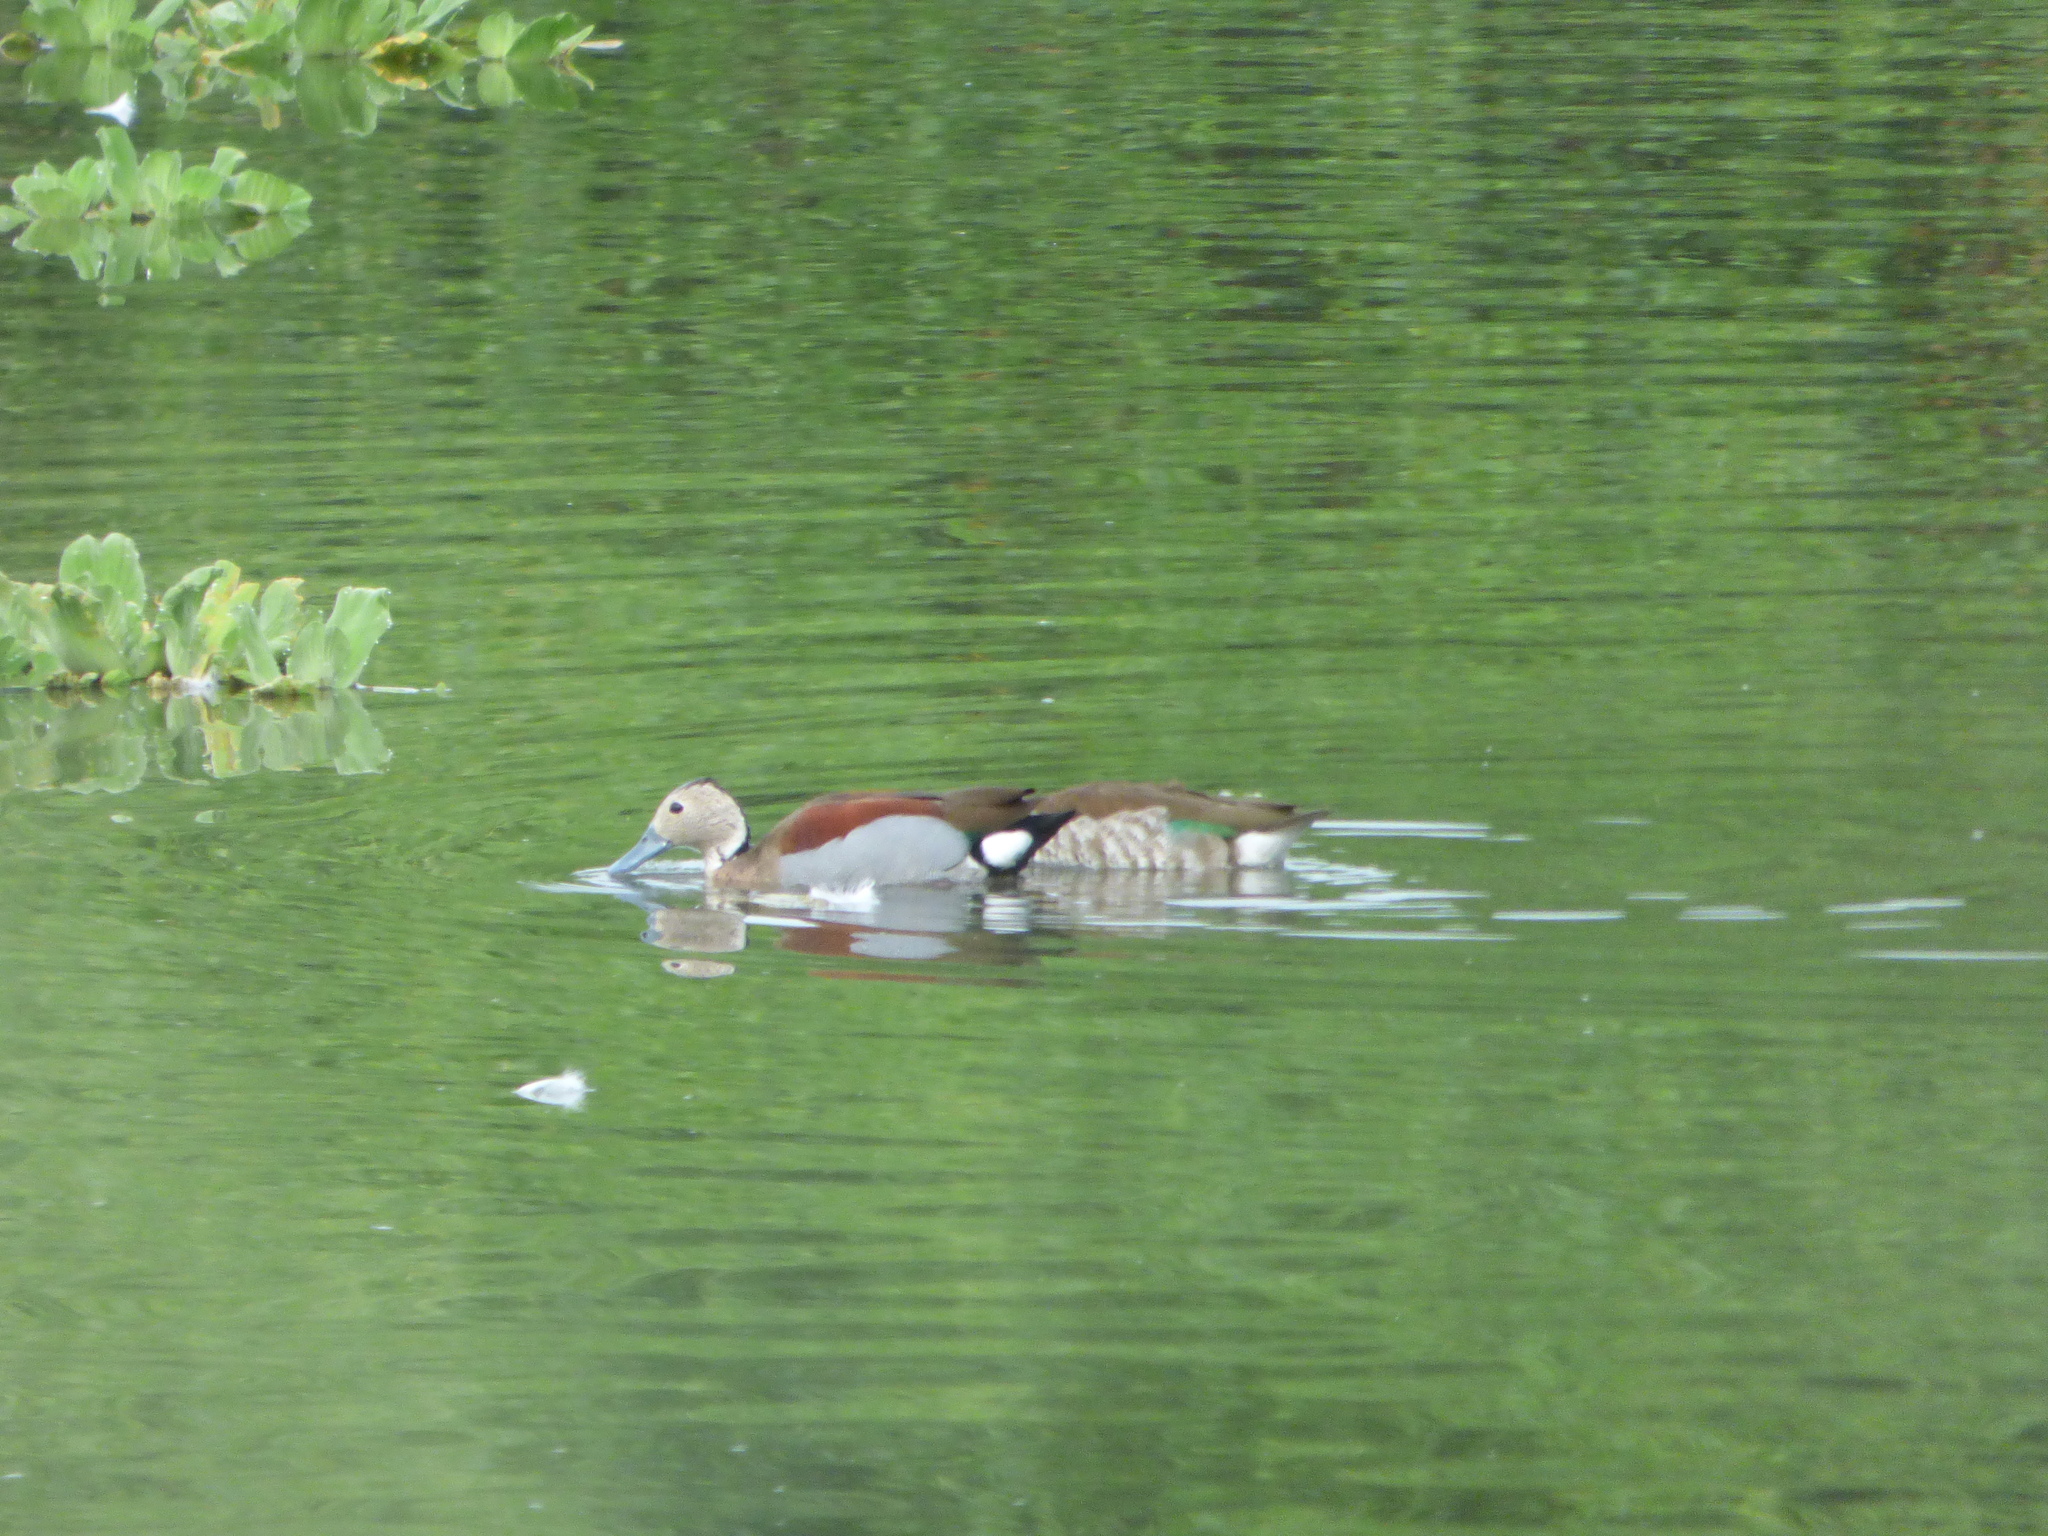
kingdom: Animalia
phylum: Chordata
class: Aves
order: Anseriformes
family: Anatidae
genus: Callonetta
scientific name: Callonetta leucophrys
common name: Ringed teal
